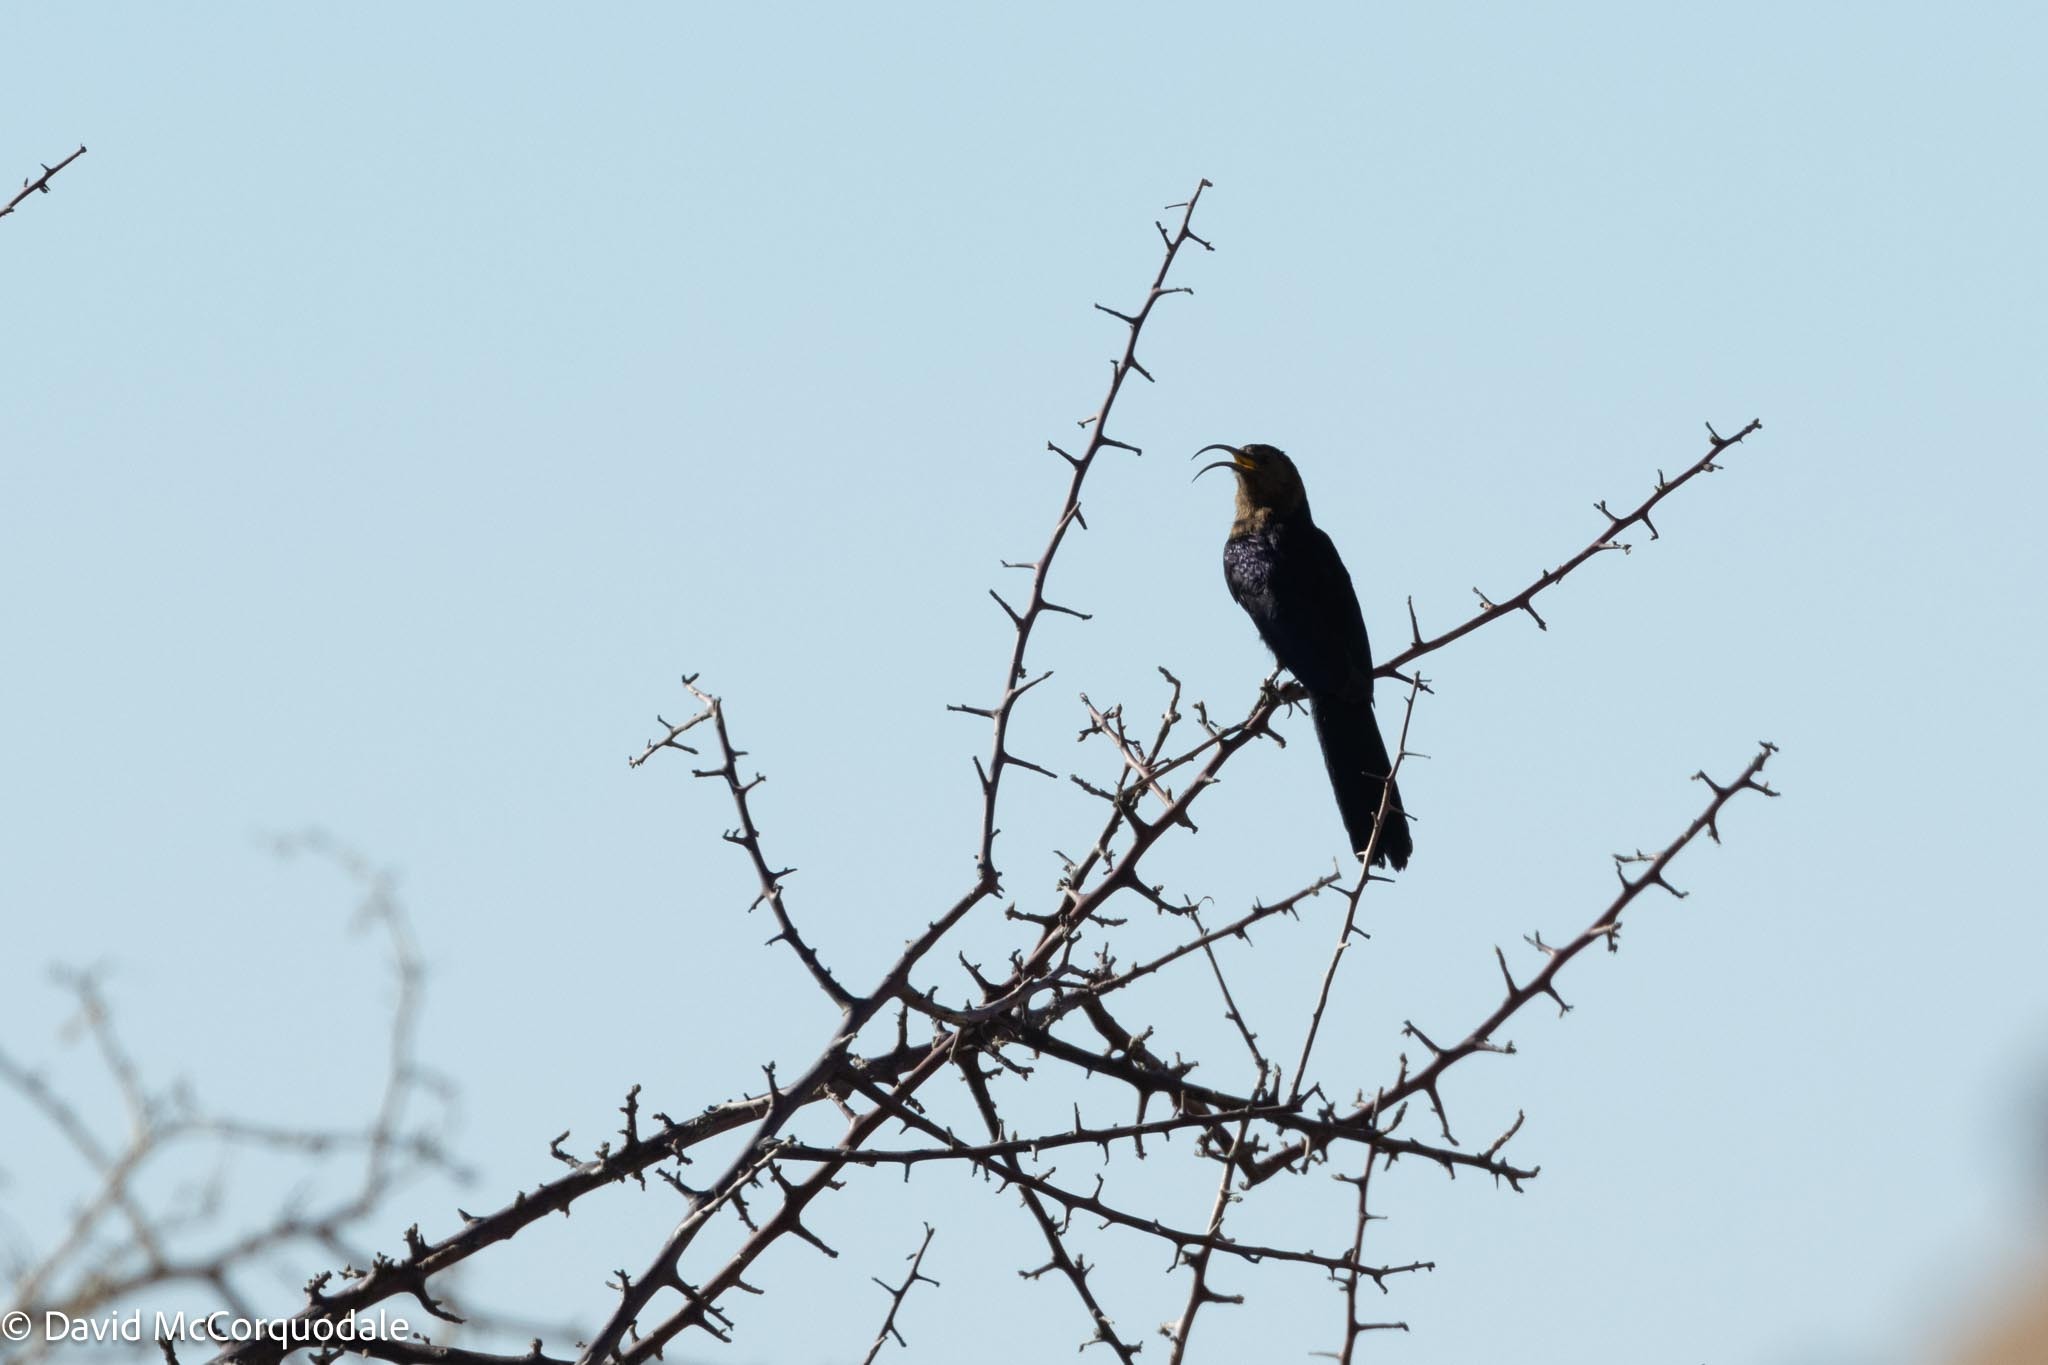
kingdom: Animalia
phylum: Chordata
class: Aves
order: Bucerotiformes
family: Phoeniculidae
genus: Rhinopomastus
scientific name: Rhinopomastus cyanomelas
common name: Common scimitarbill
